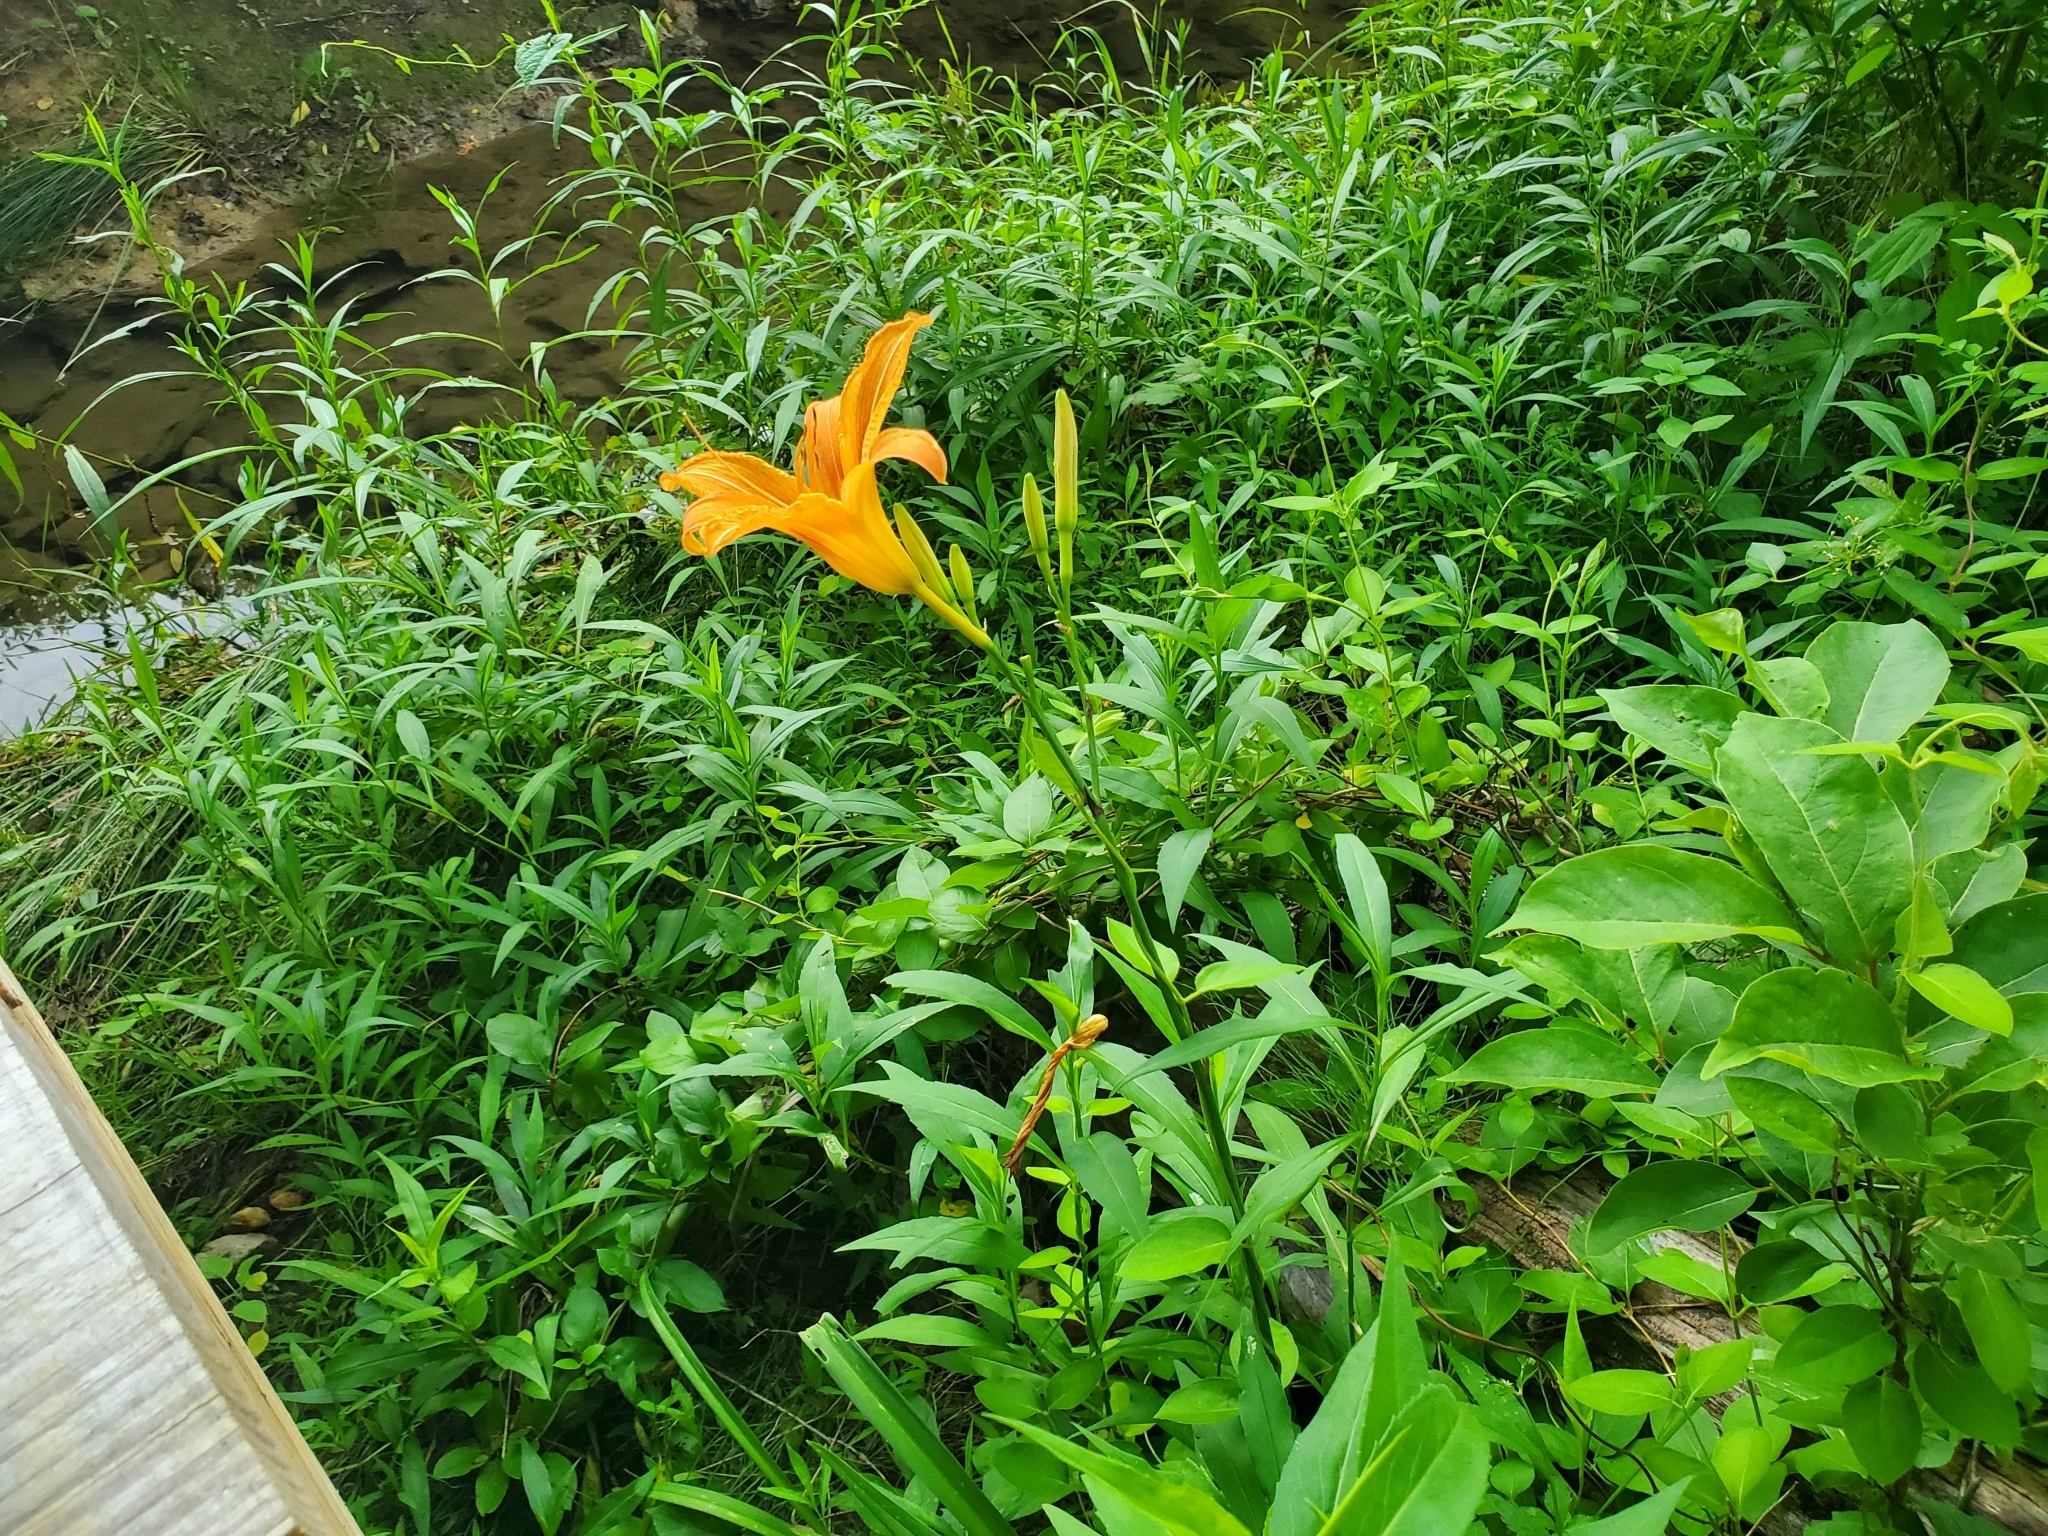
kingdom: Plantae
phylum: Tracheophyta
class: Liliopsida
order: Asparagales
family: Asphodelaceae
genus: Hemerocallis
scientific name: Hemerocallis fulva
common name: Orange day-lily
